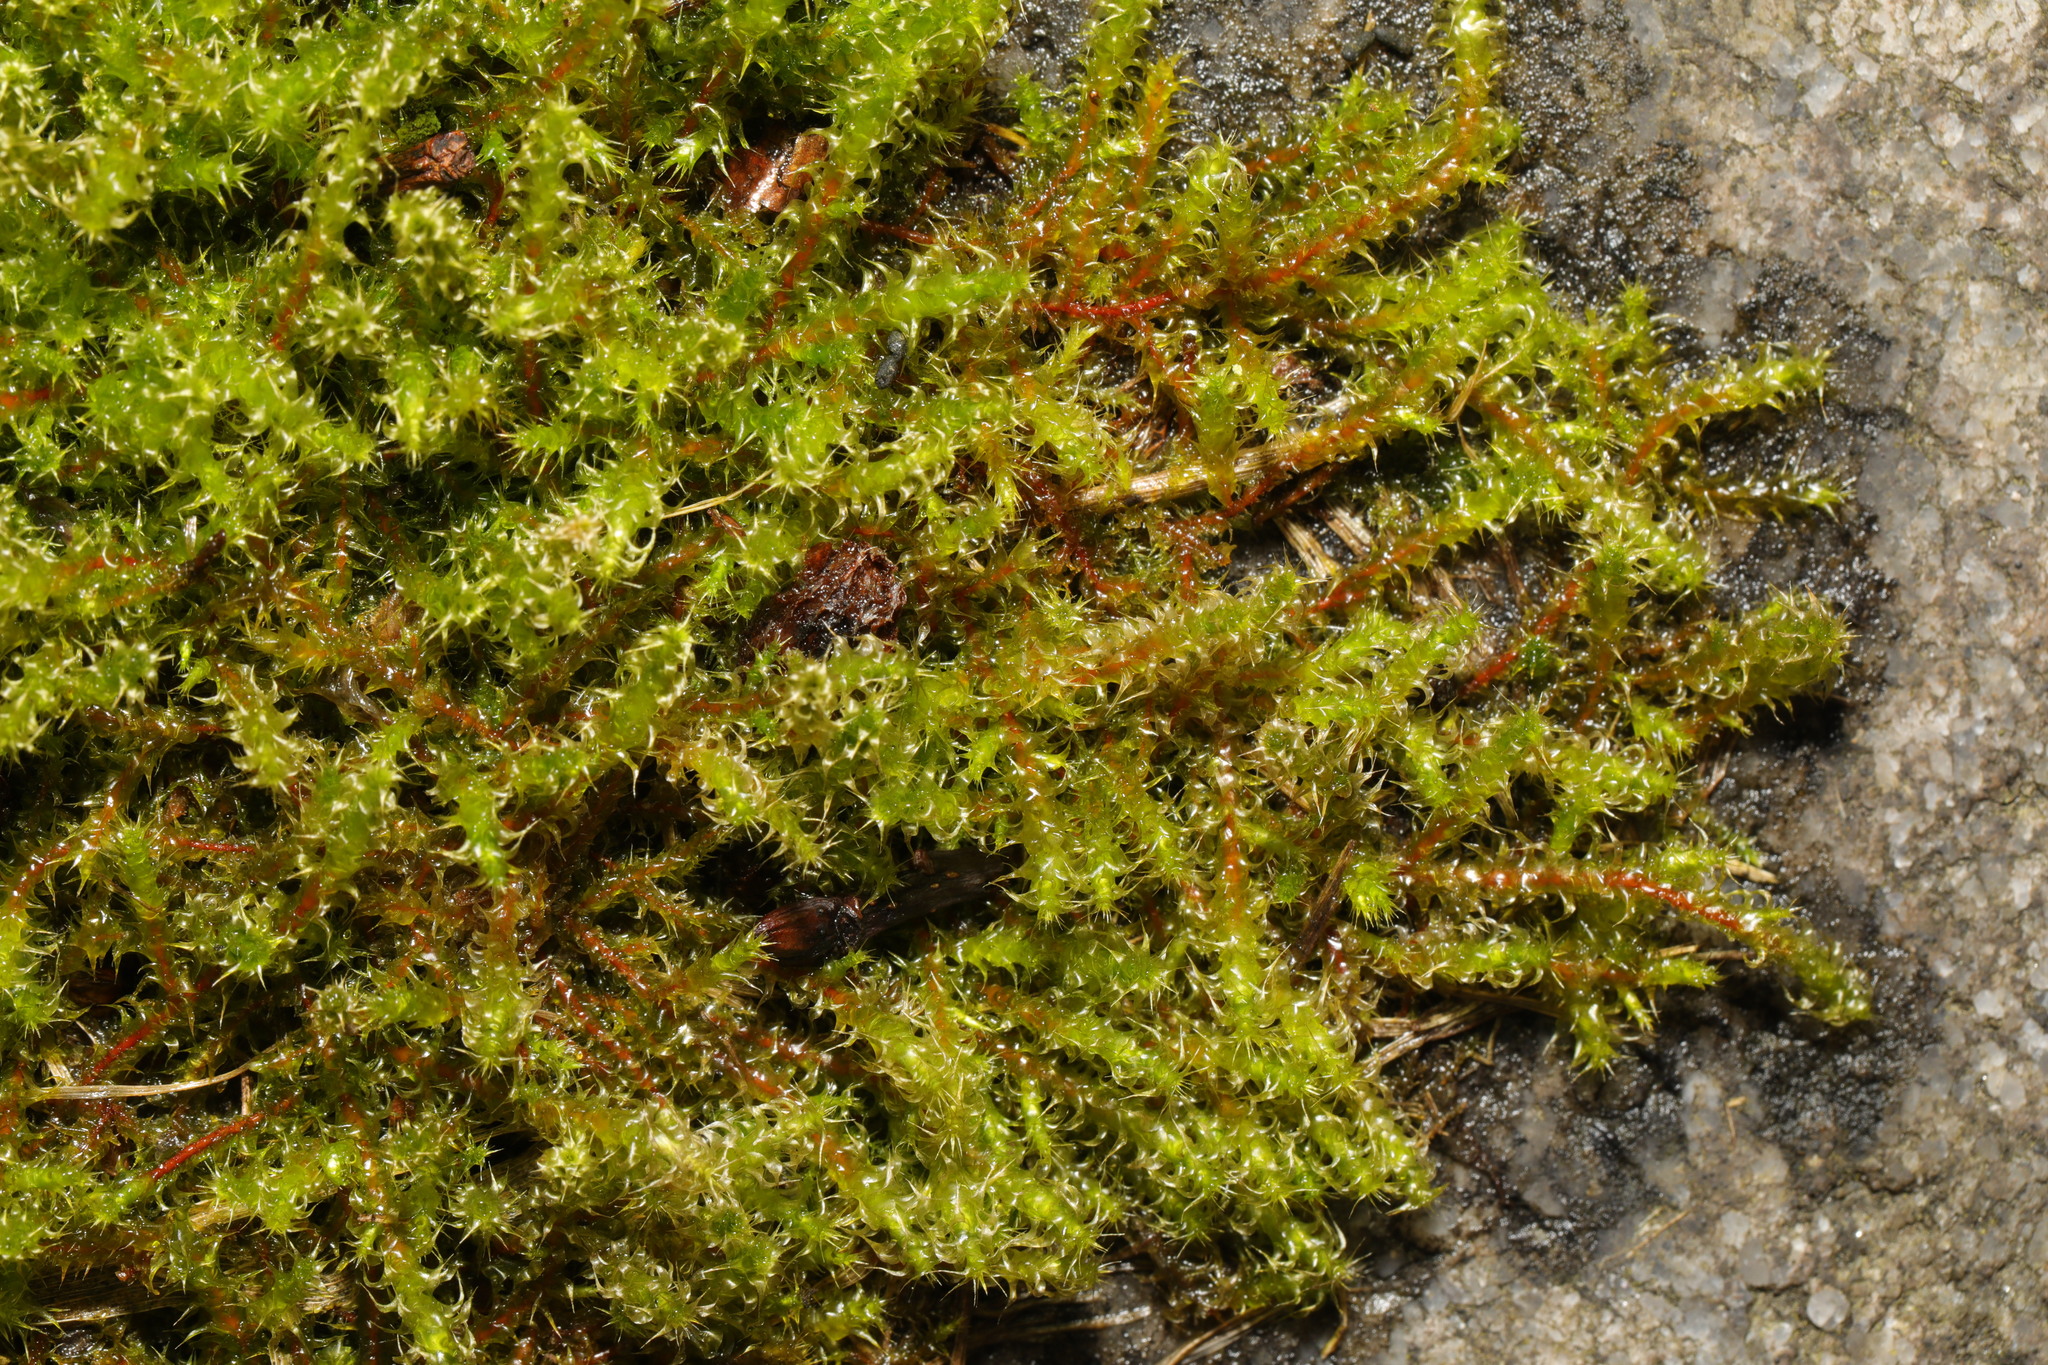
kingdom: Plantae
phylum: Bryophyta
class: Bryopsida
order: Hypnales
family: Hylocomiaceae
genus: Rhytidiadelphus
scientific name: Rhytidiadelphus squarrosus
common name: Springy turf-moss
